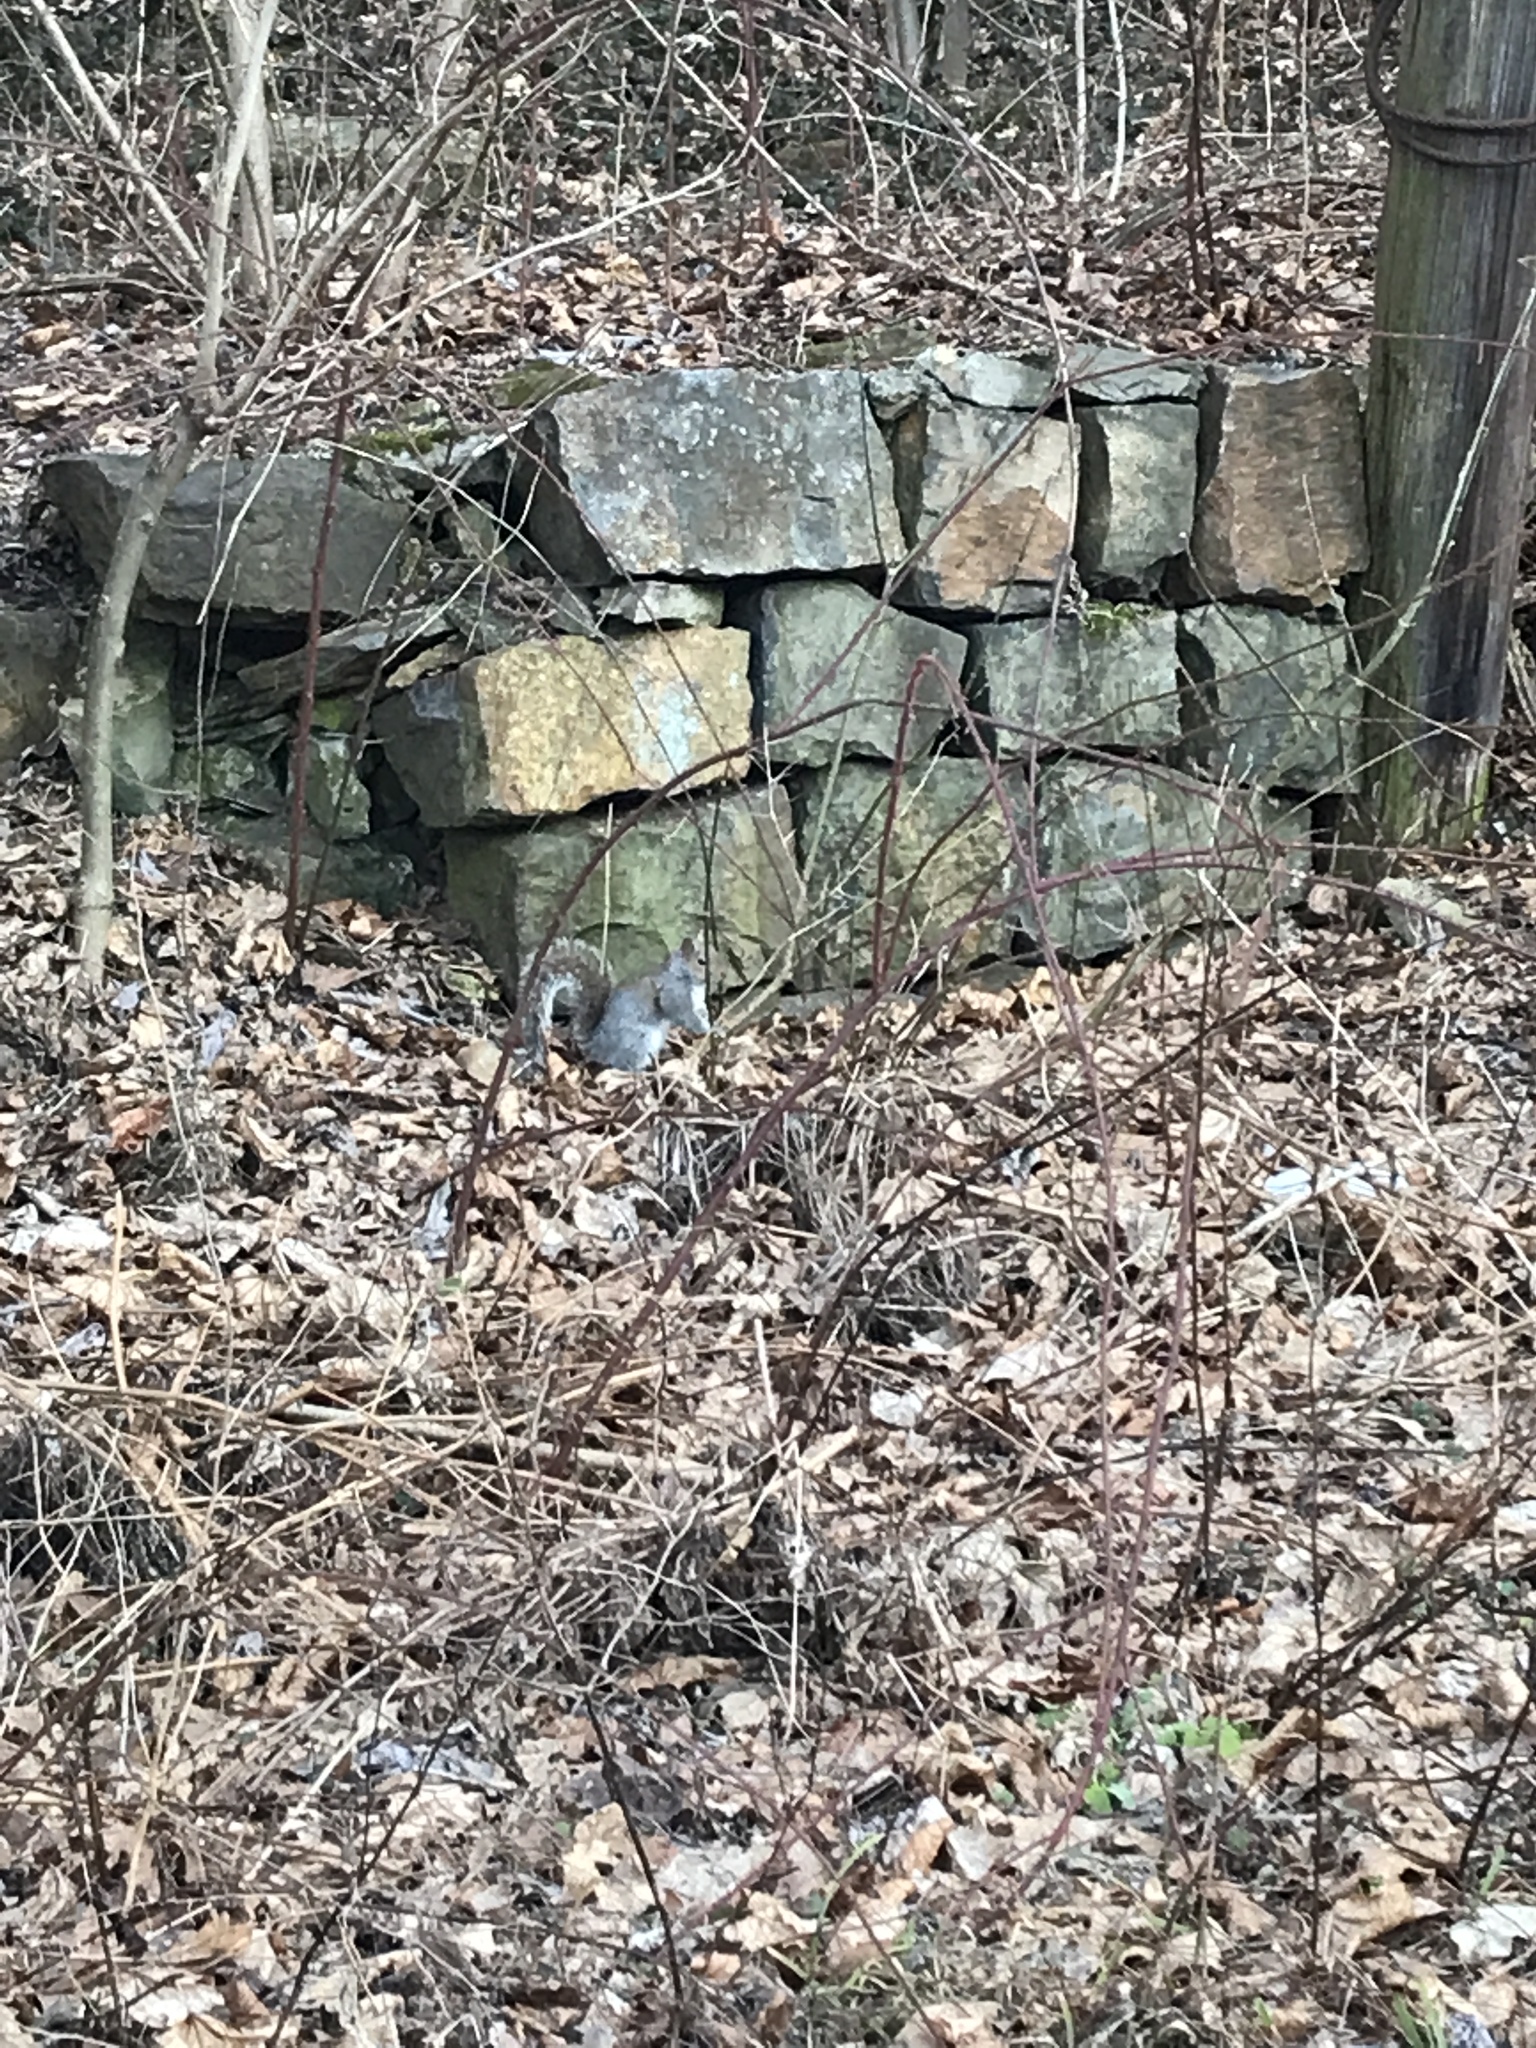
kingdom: Animalia
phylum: Chordata
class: Mammalia
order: Rodentia
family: Sciuridae
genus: Sciurus
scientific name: Sciurus carolinensis
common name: Eastern gray squirrel
